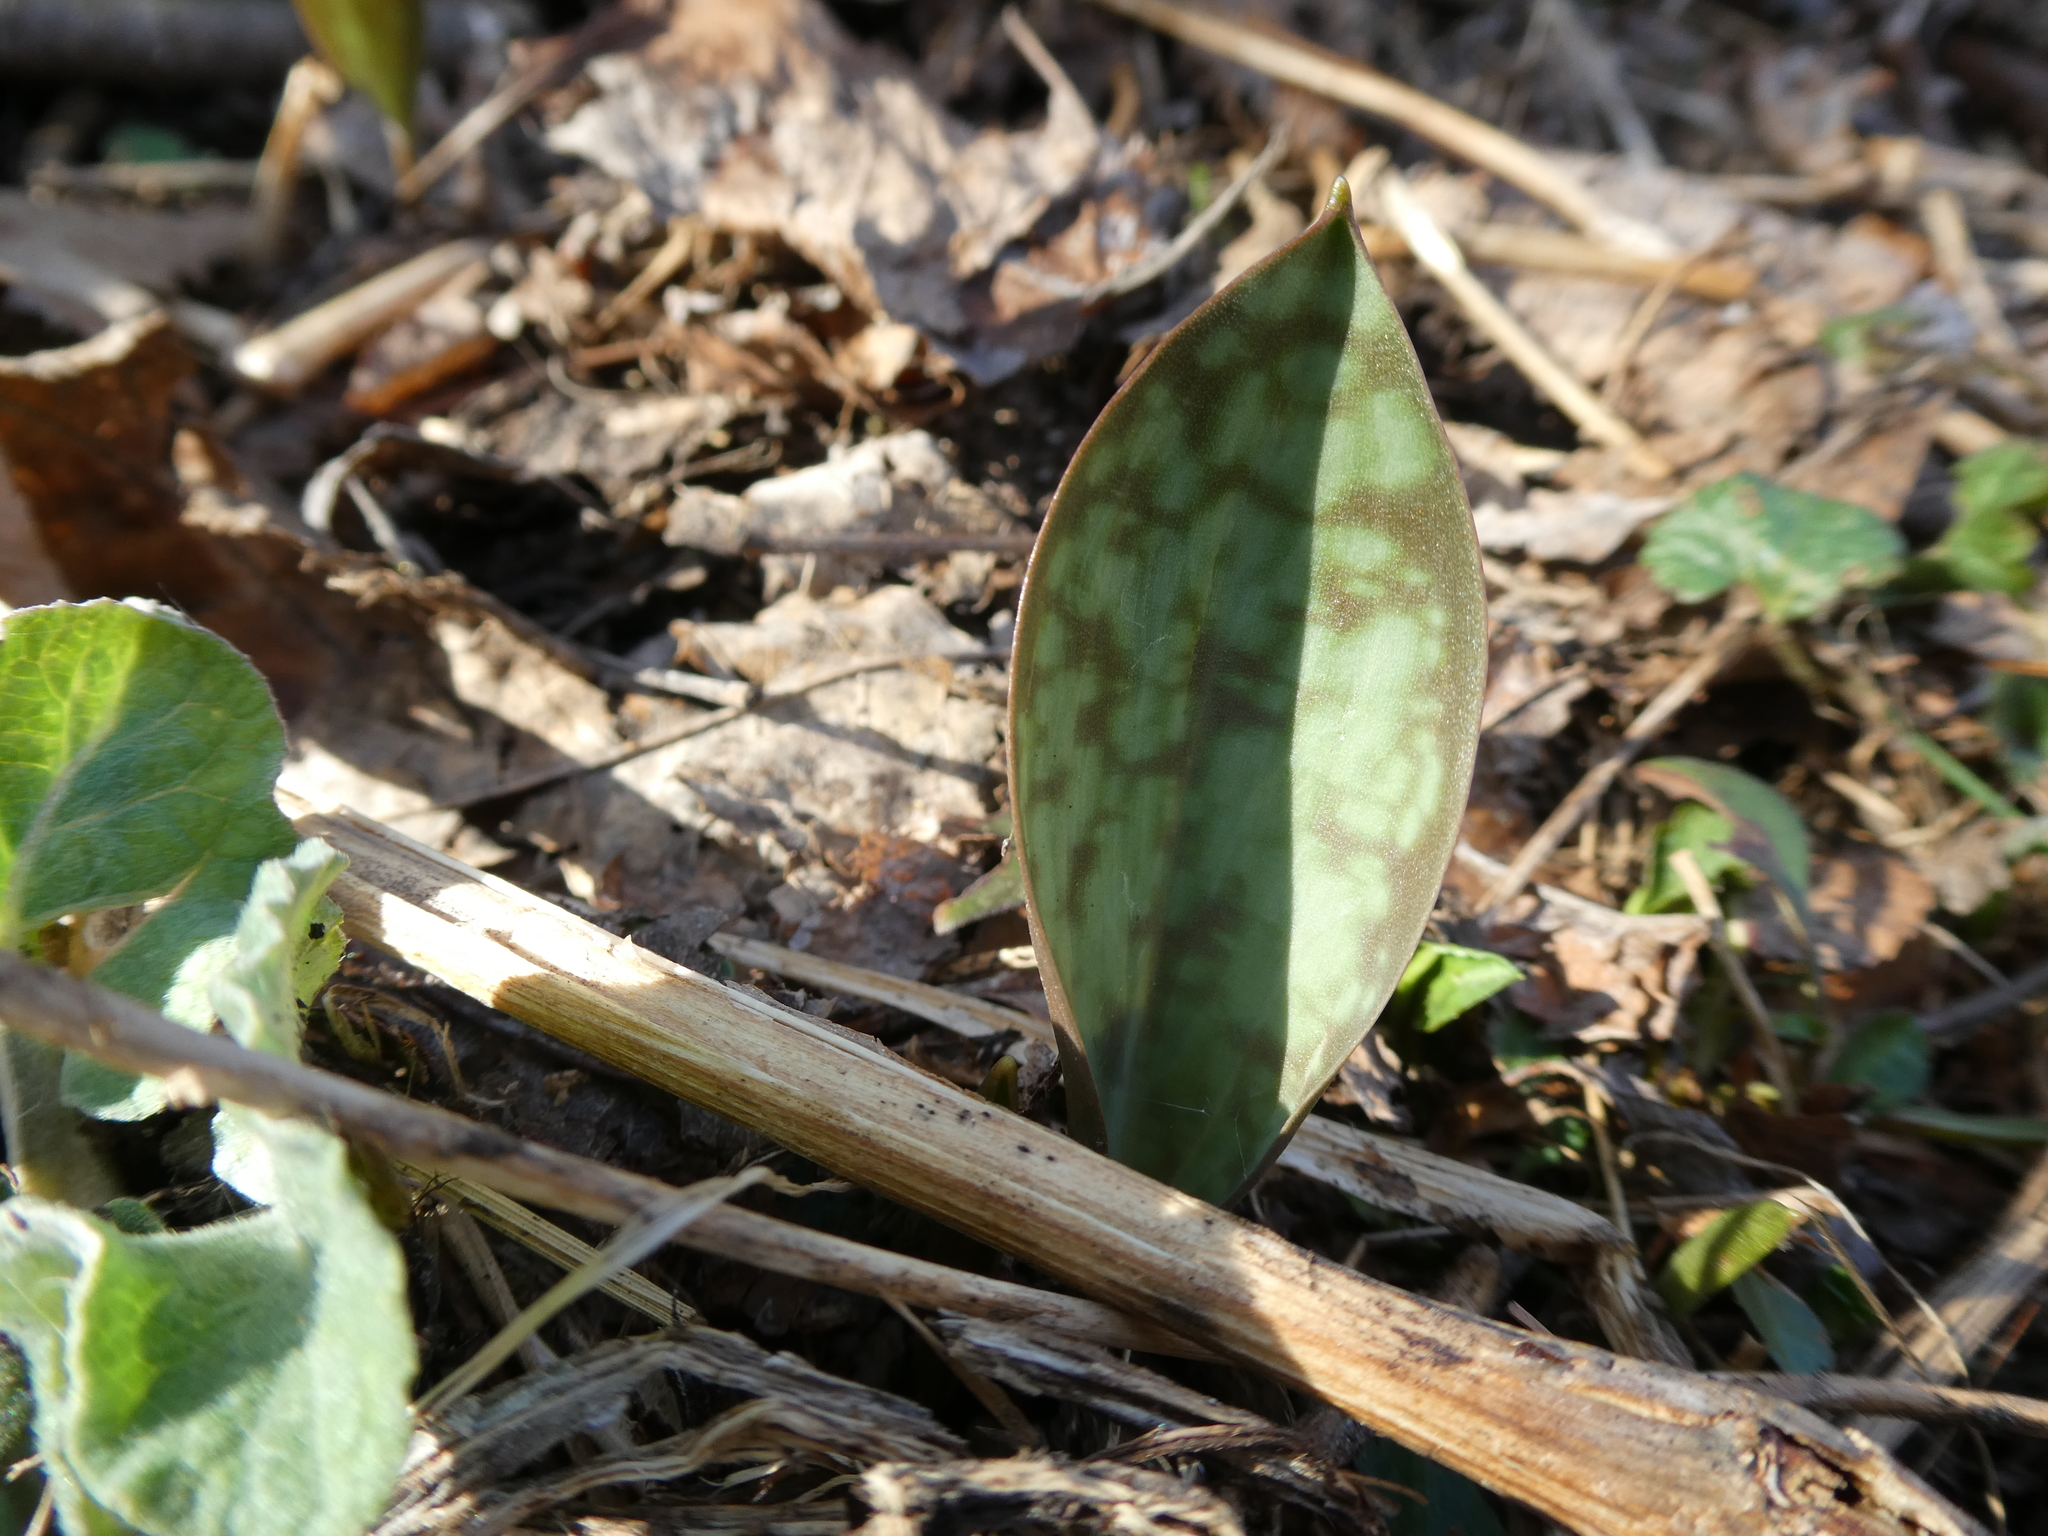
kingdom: Plantae
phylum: Tracheophyta
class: Liliopsida
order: Liliales
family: Liliaceae
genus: Erythronium
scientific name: Erythronium americanum
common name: Yellow adder's-tongue
